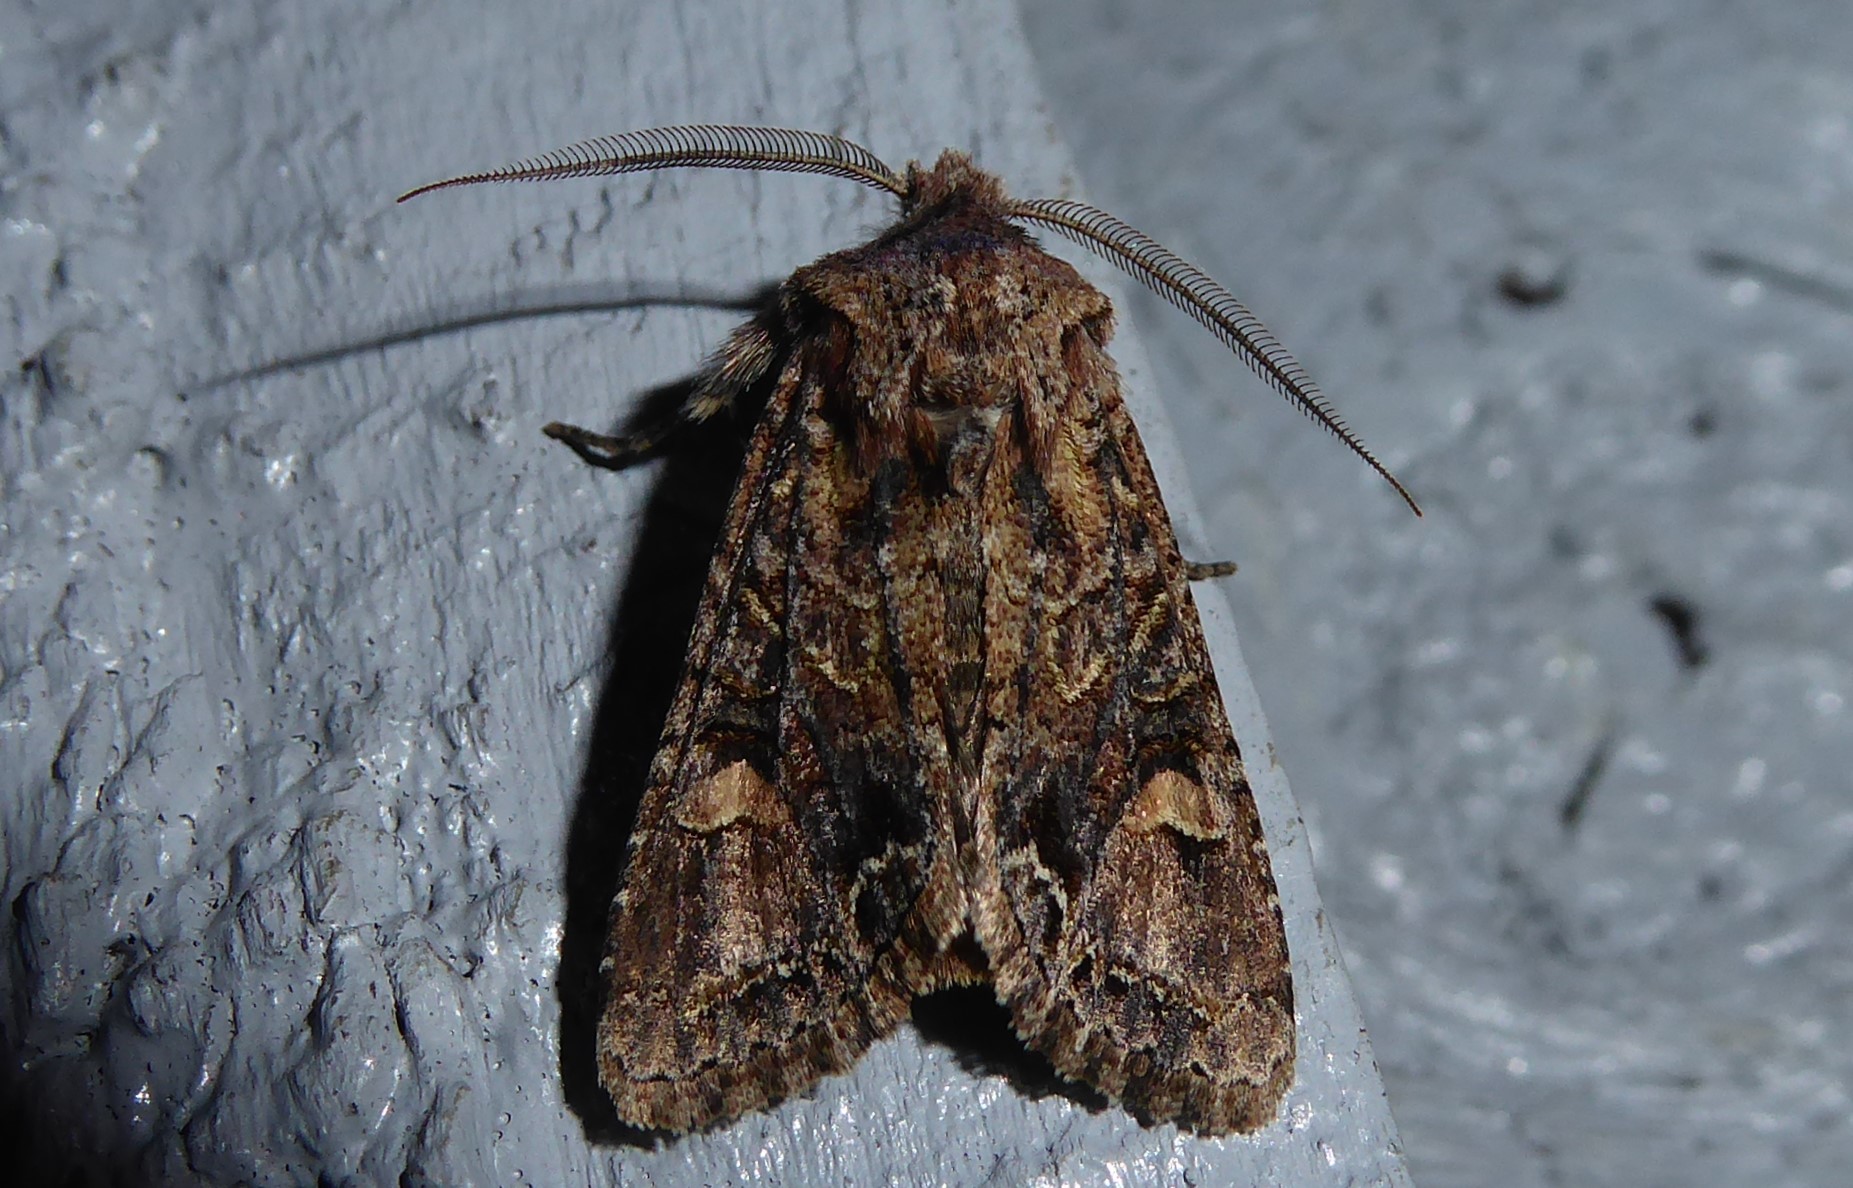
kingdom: Animalia
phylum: Arthropoda
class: Insecta
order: Lepidoptera
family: Noctuidae
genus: Ichneutica
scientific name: Ichneutica skelloni
